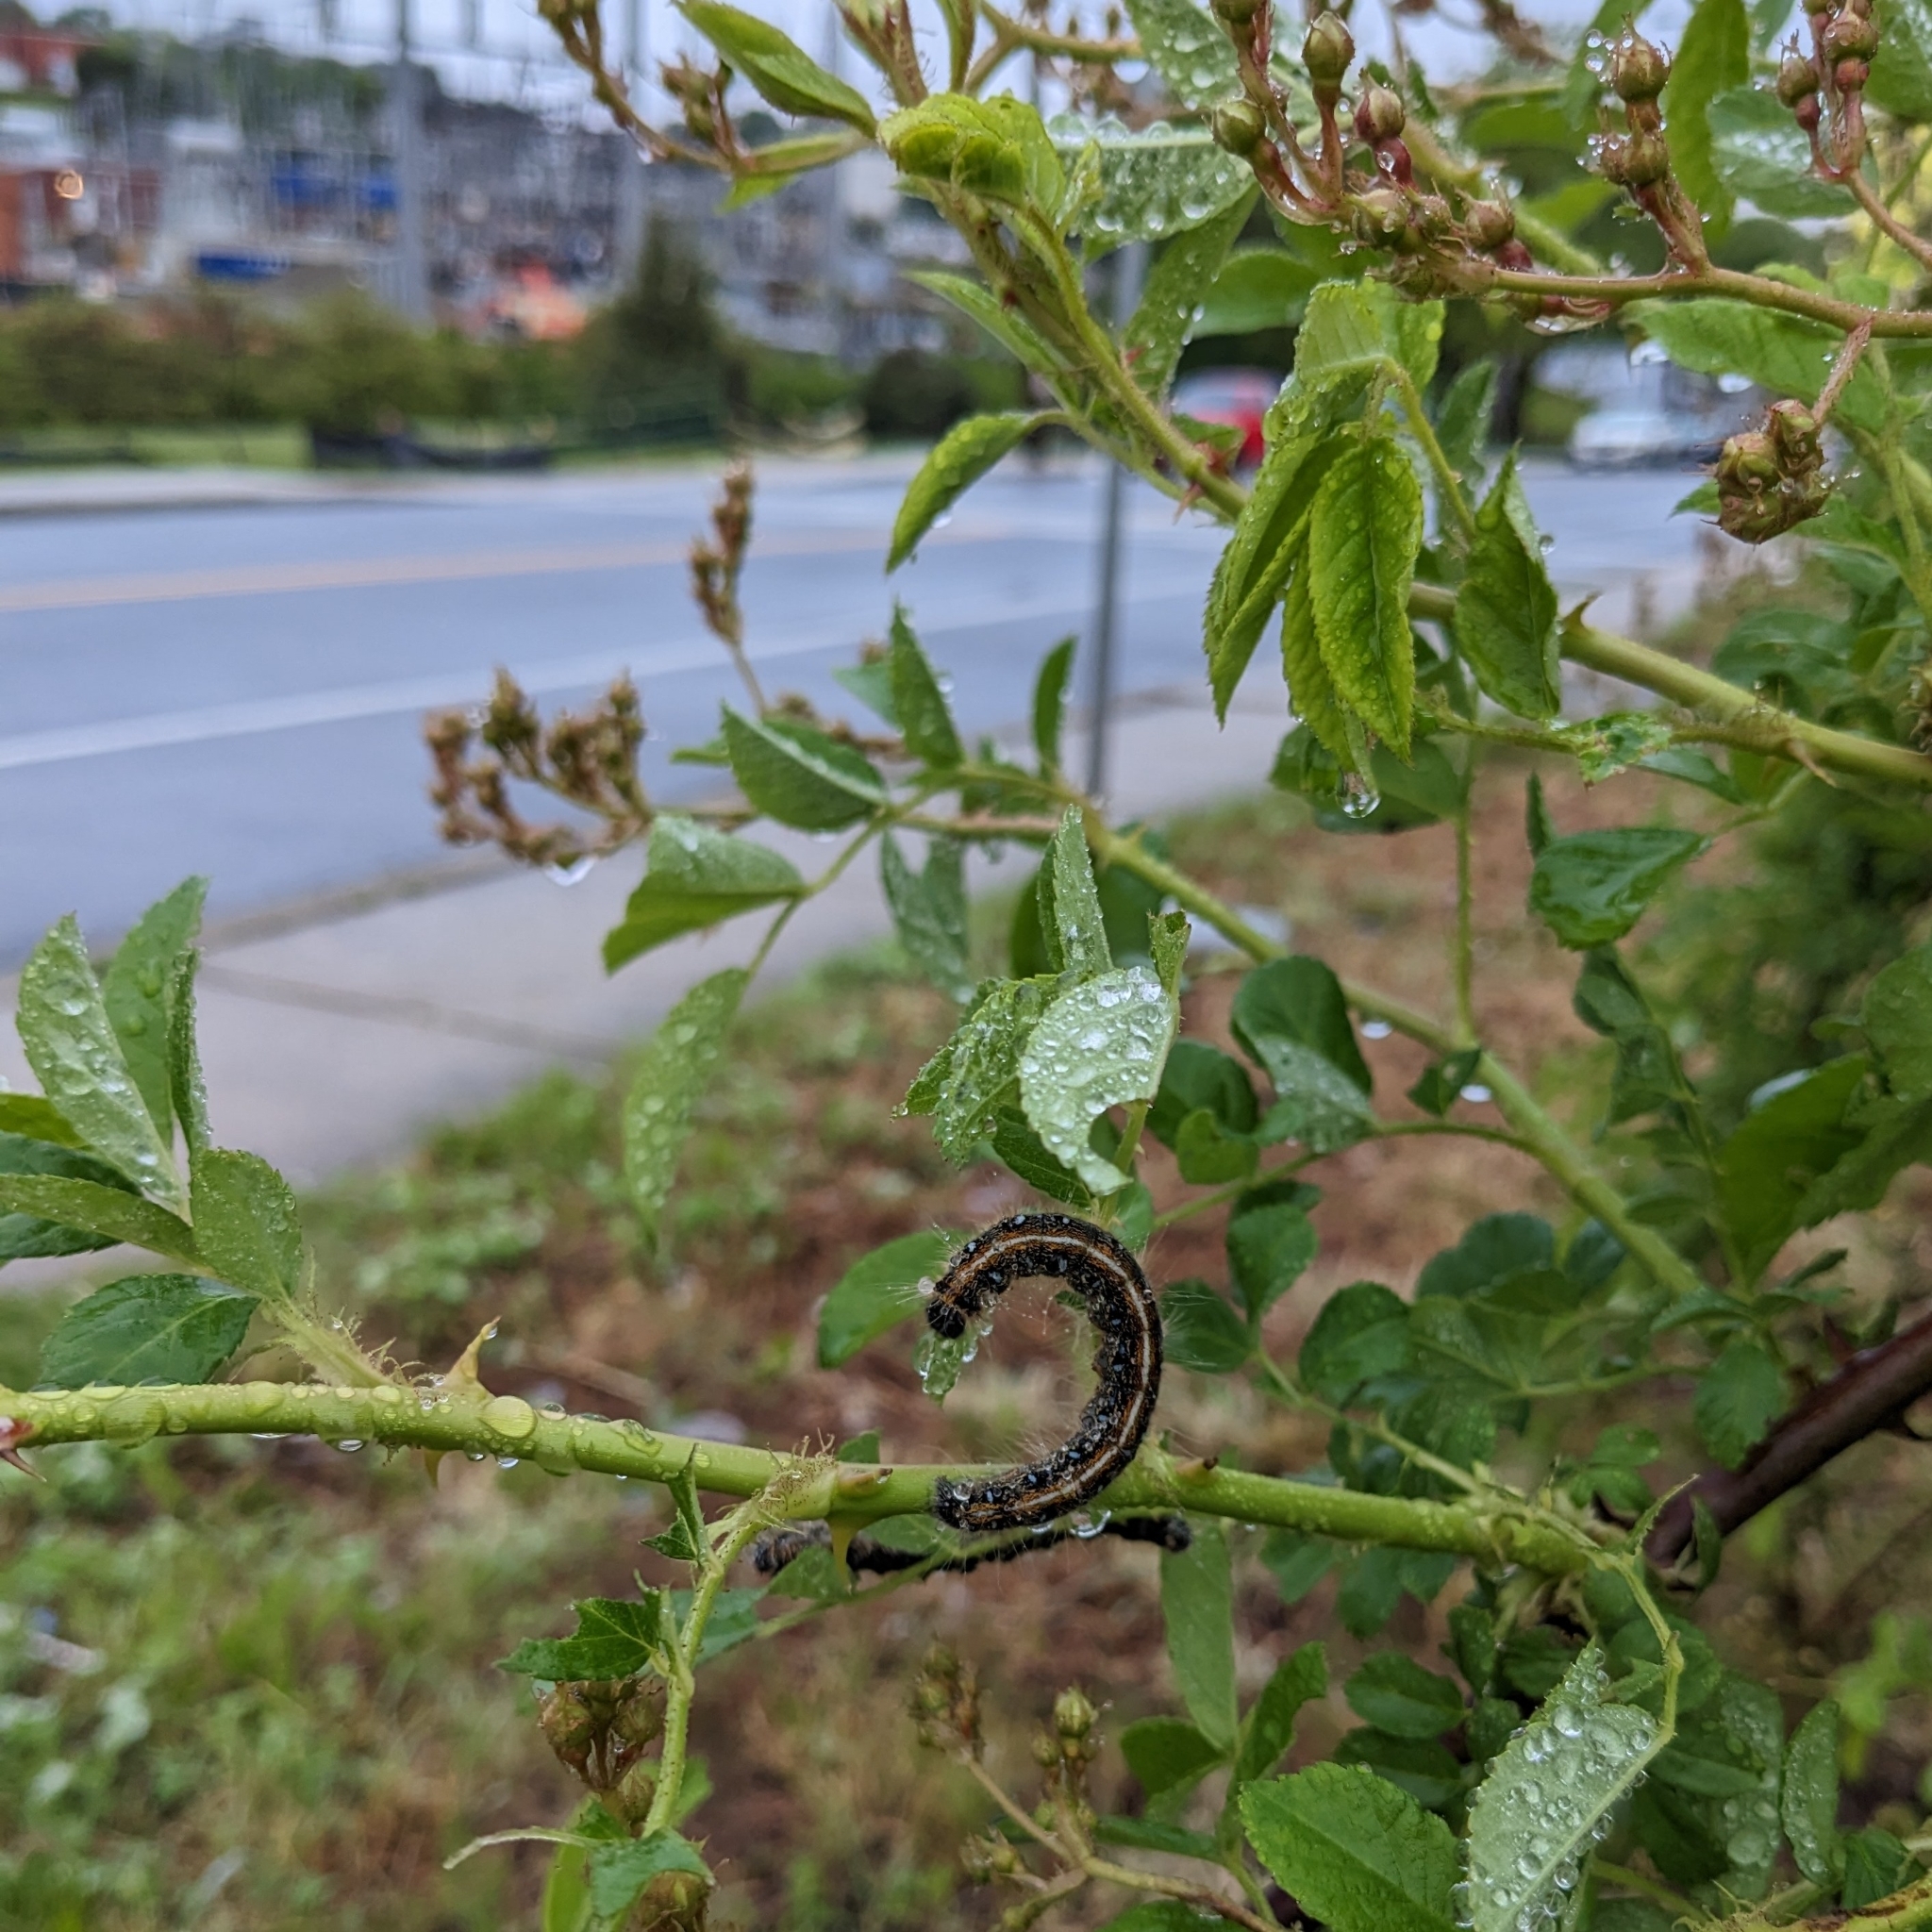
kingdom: Animalia
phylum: Arthropoda
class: Insecta
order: Lepidoptera
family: Lasiocampidae
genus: Malacosoma
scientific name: Malacosoma americana
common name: Eastern tent caterpillar moth
